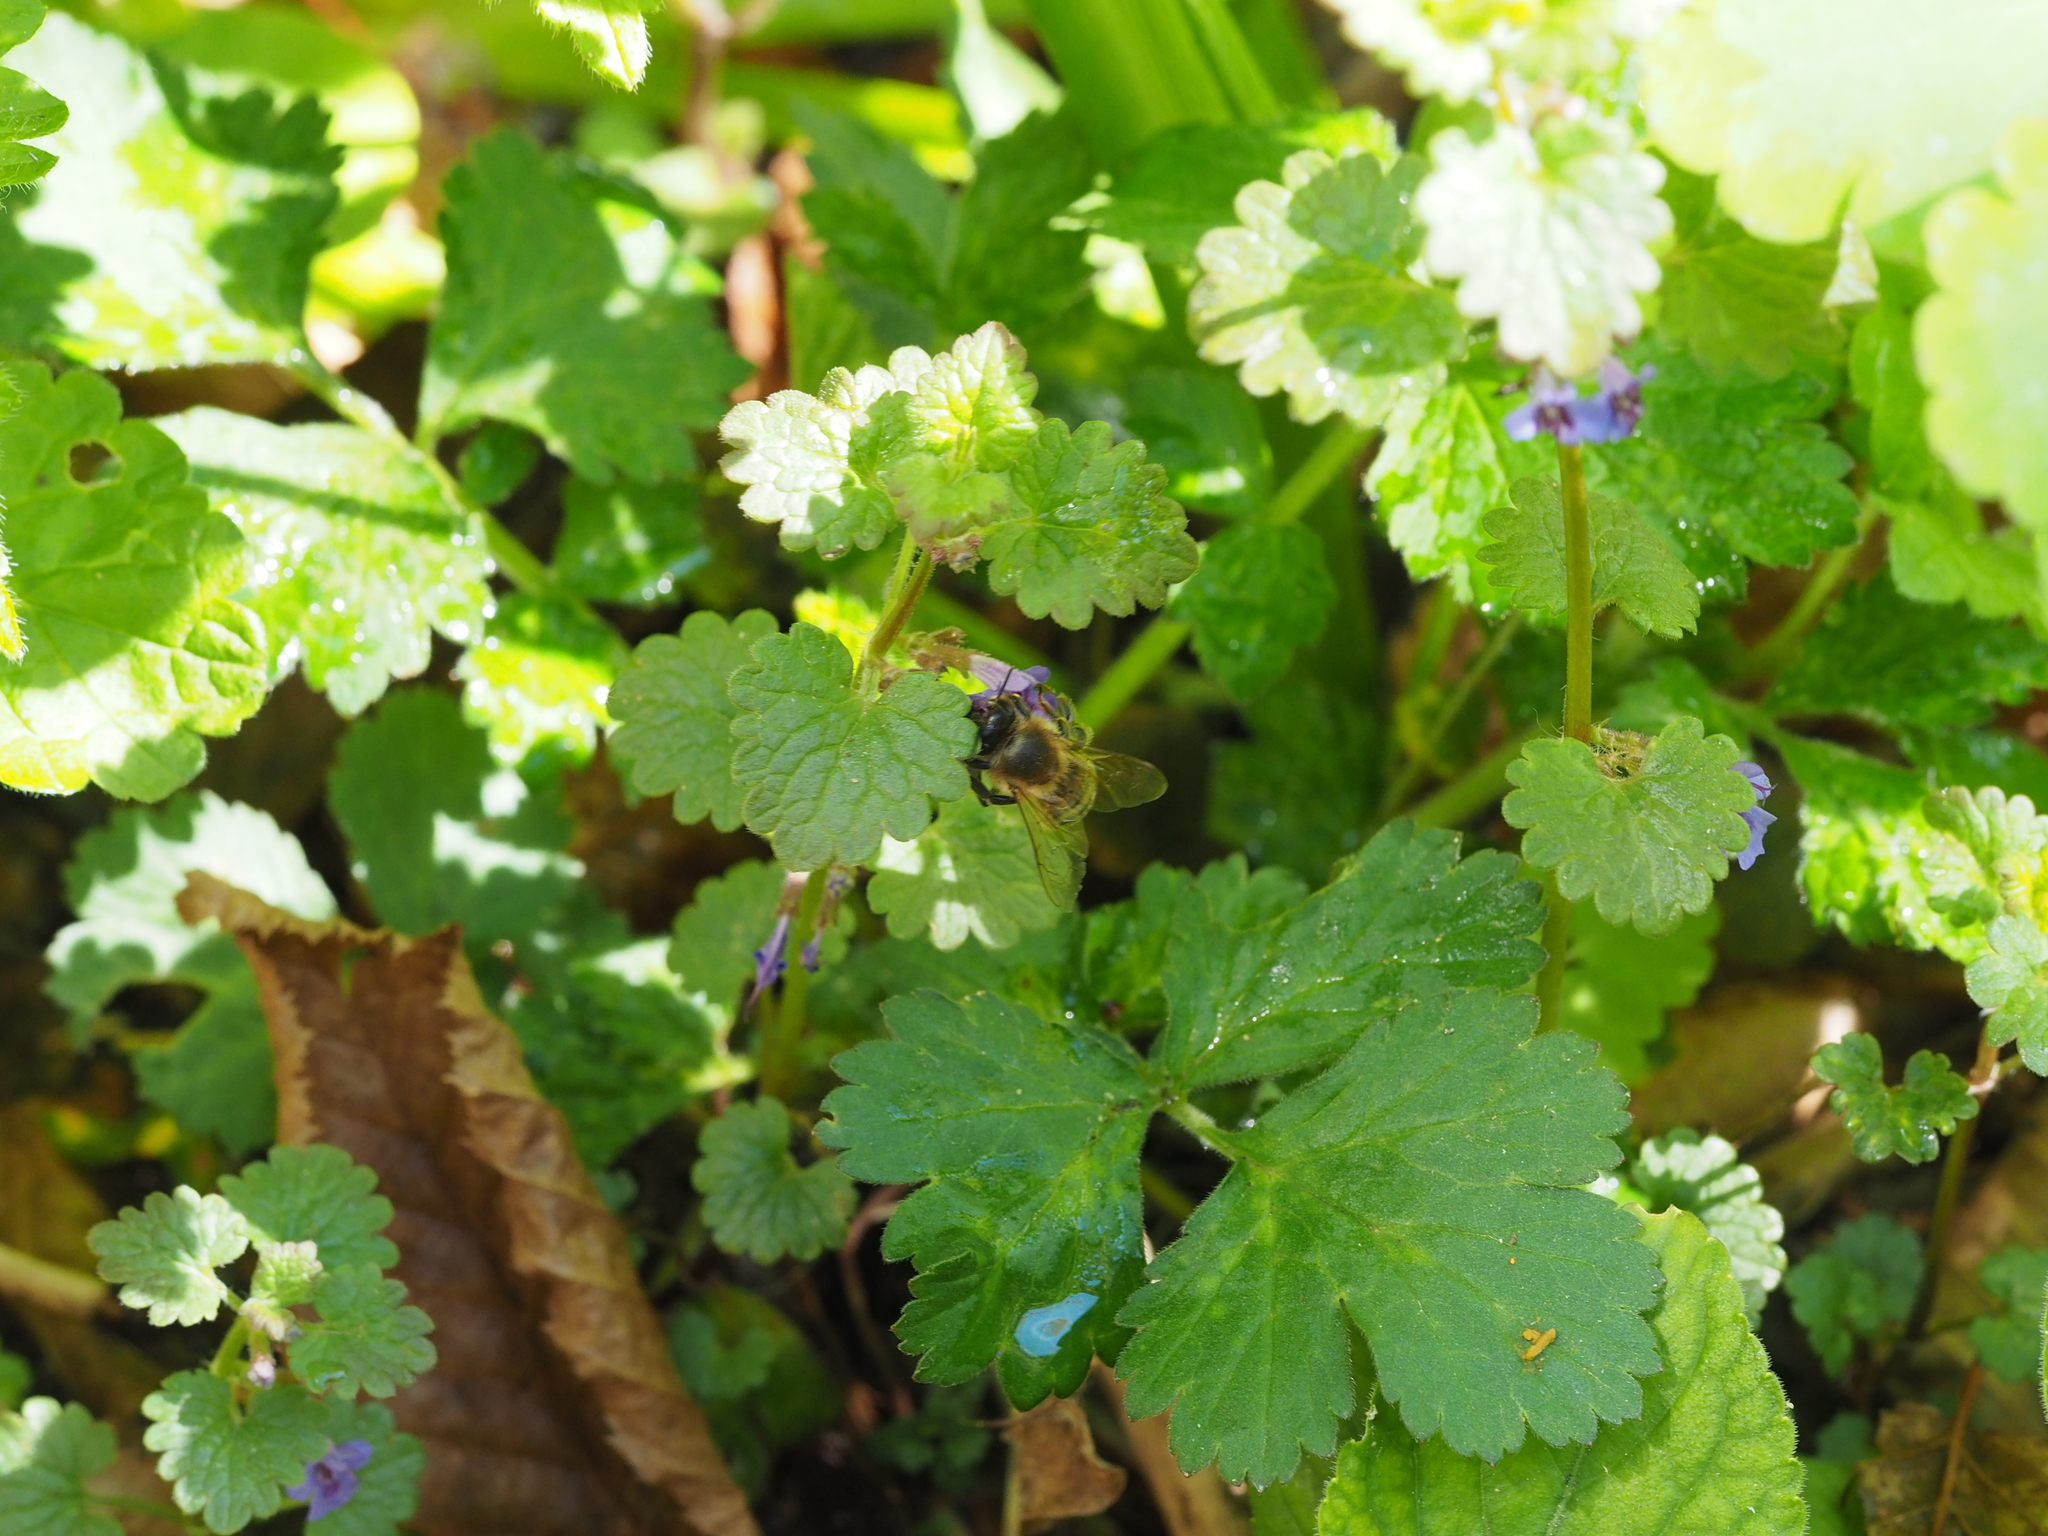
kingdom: Animalia
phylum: Arthropoda
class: Insecta
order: Hymenoptera
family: Apidae
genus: Apis
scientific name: Apis mellifera
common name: Honey bee
